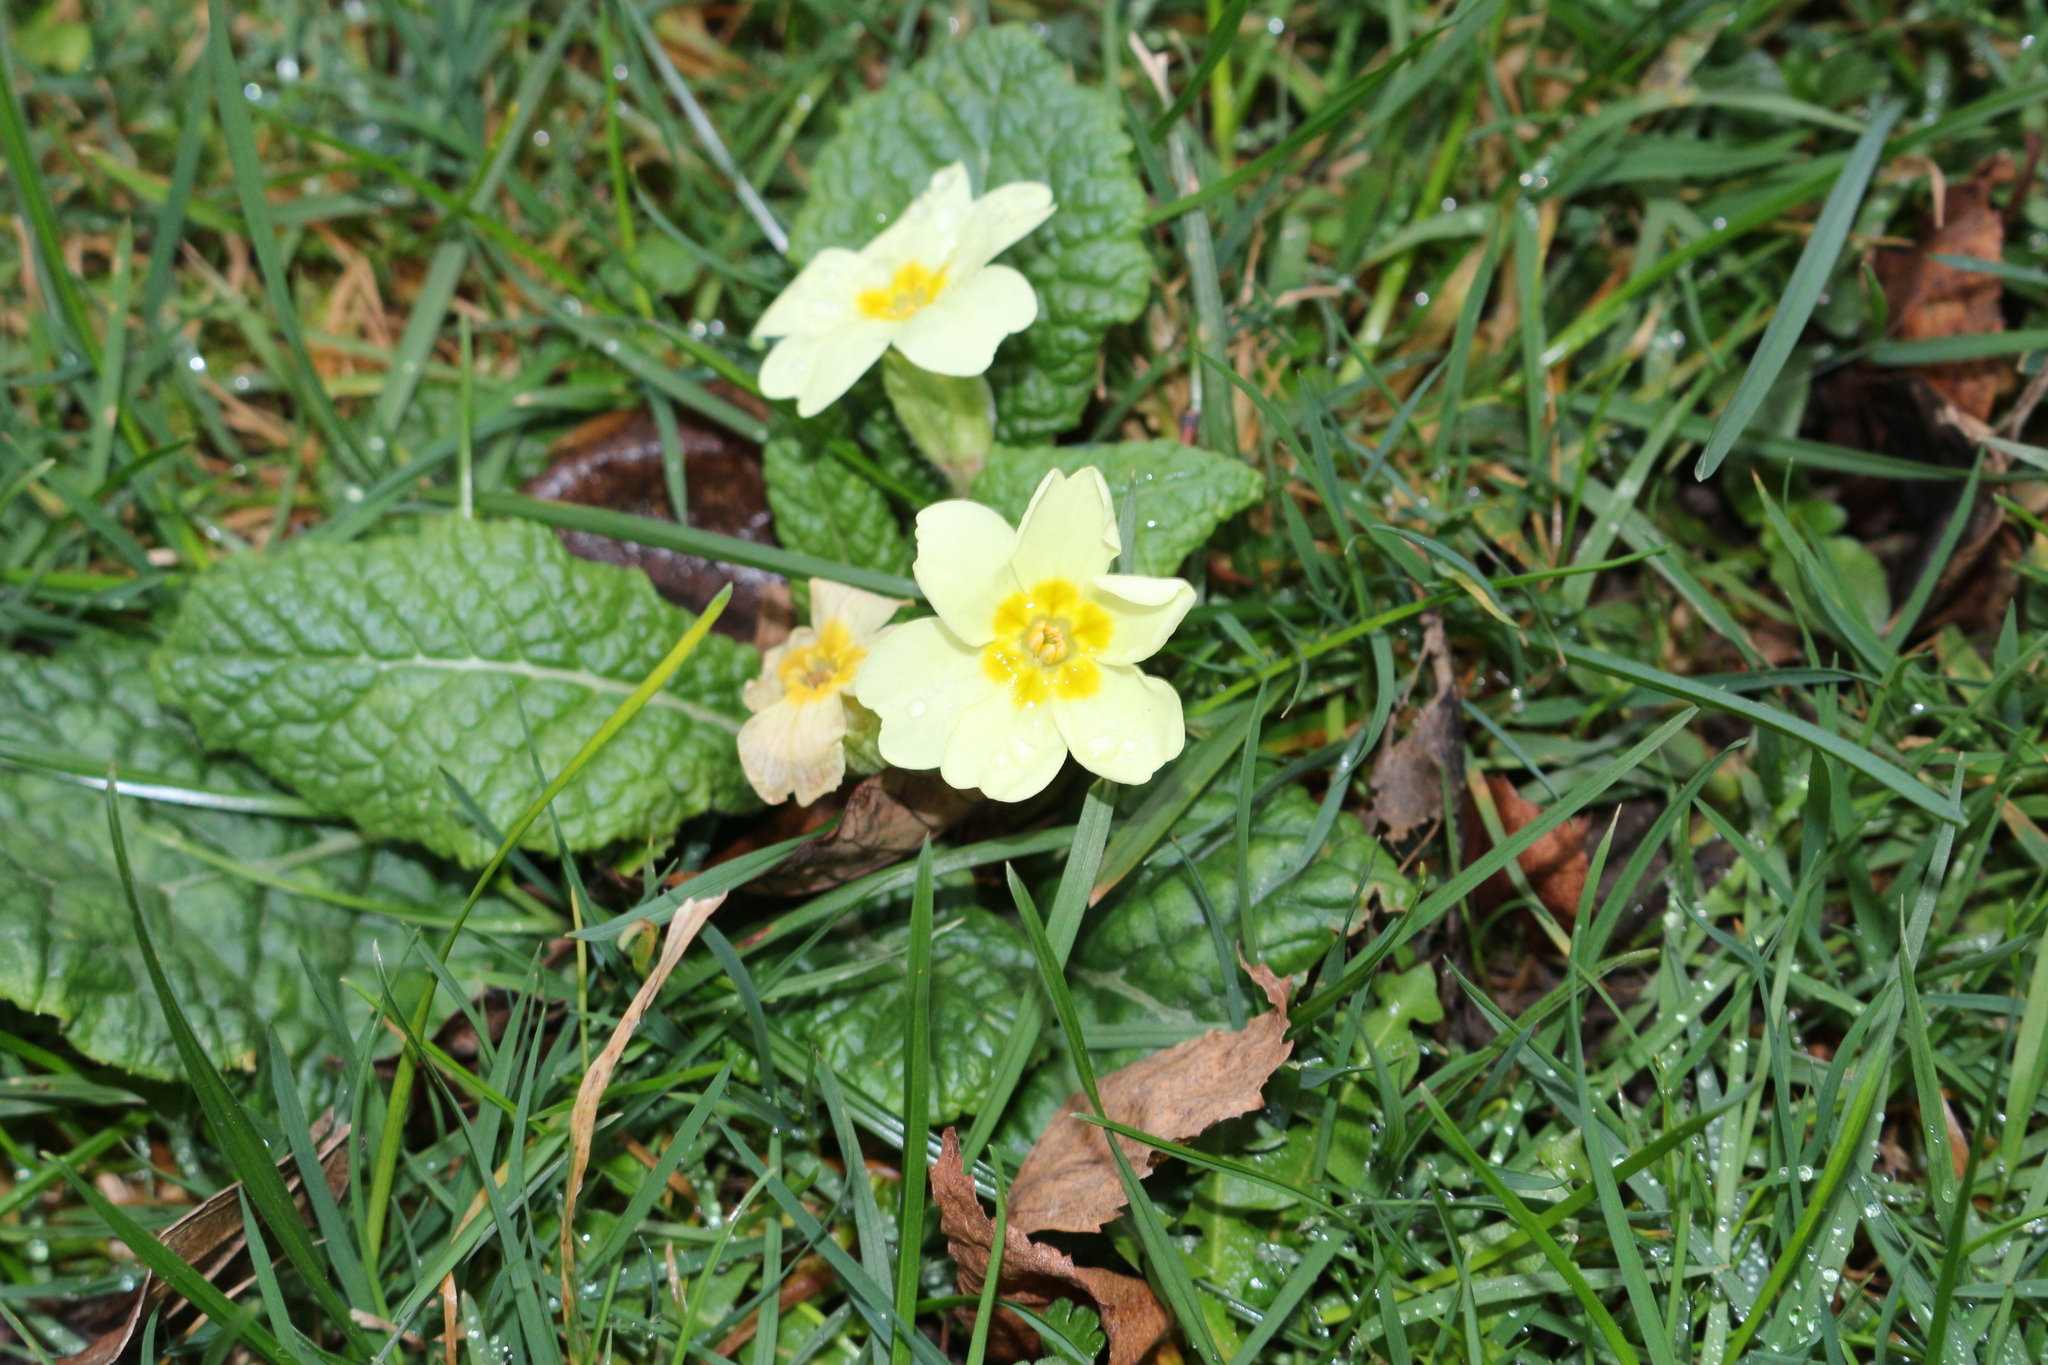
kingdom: Plantae
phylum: Tracheophyta
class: Magnoliopsida
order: Ericales
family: Primulaceae
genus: Primula
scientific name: Primula vulgaris
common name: Primrose
